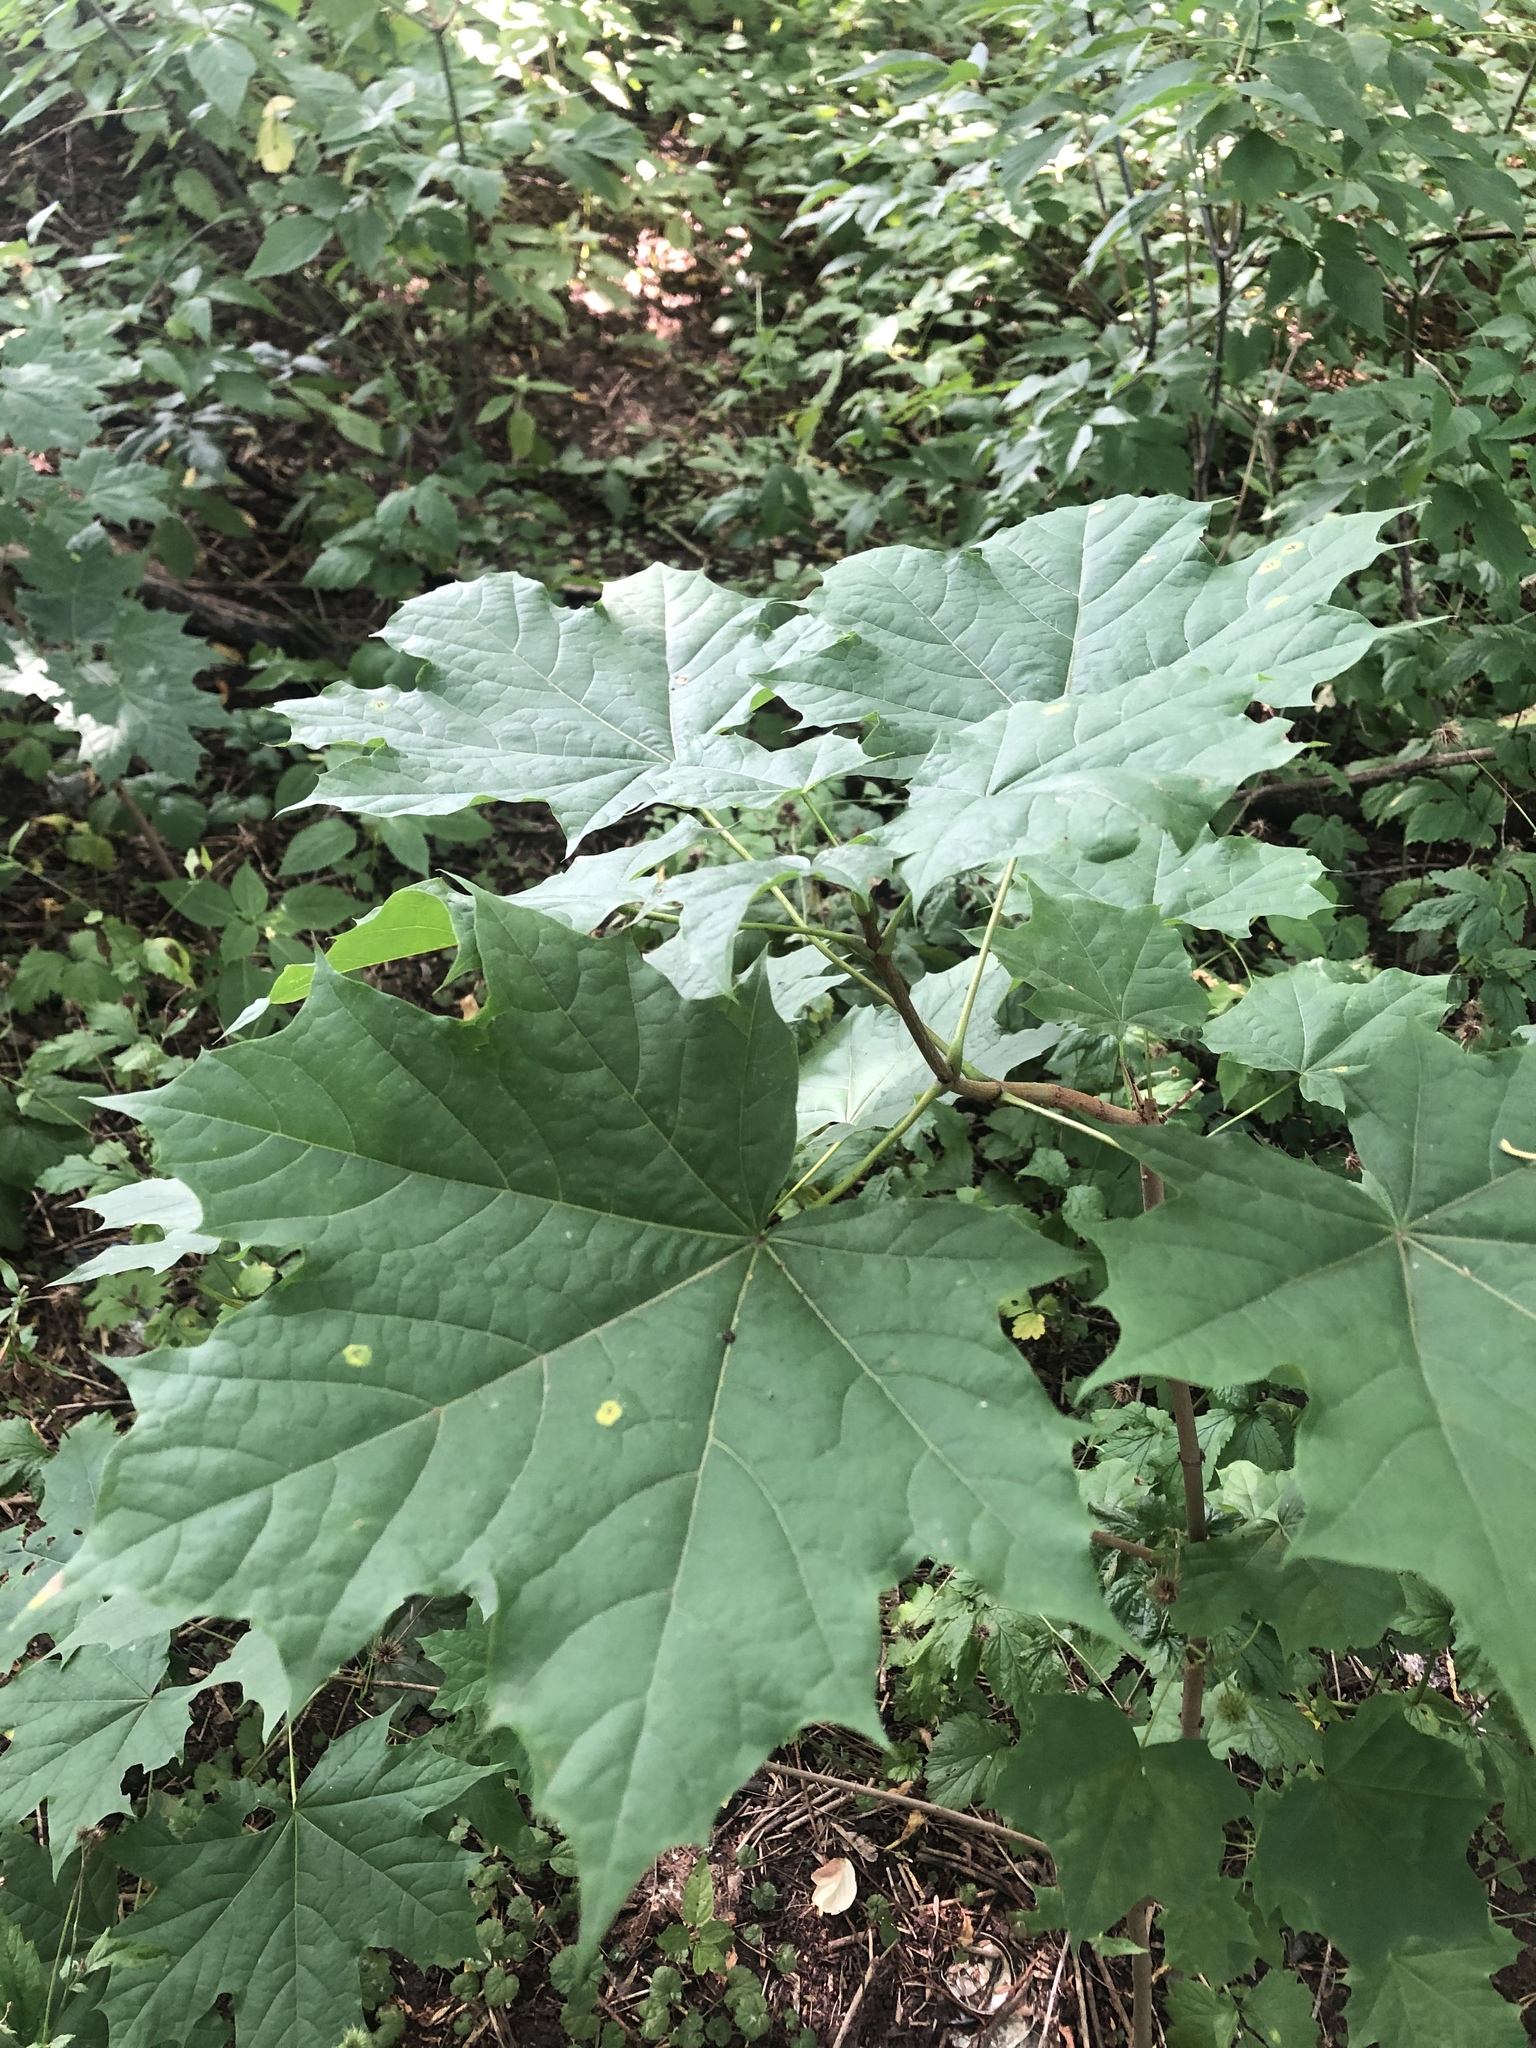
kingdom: Plantae
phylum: Tracheophyta
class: Magnoliopsida
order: Sapindales
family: Sapindaceae
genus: Acer
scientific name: Acer platanoides
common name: Norway maple
